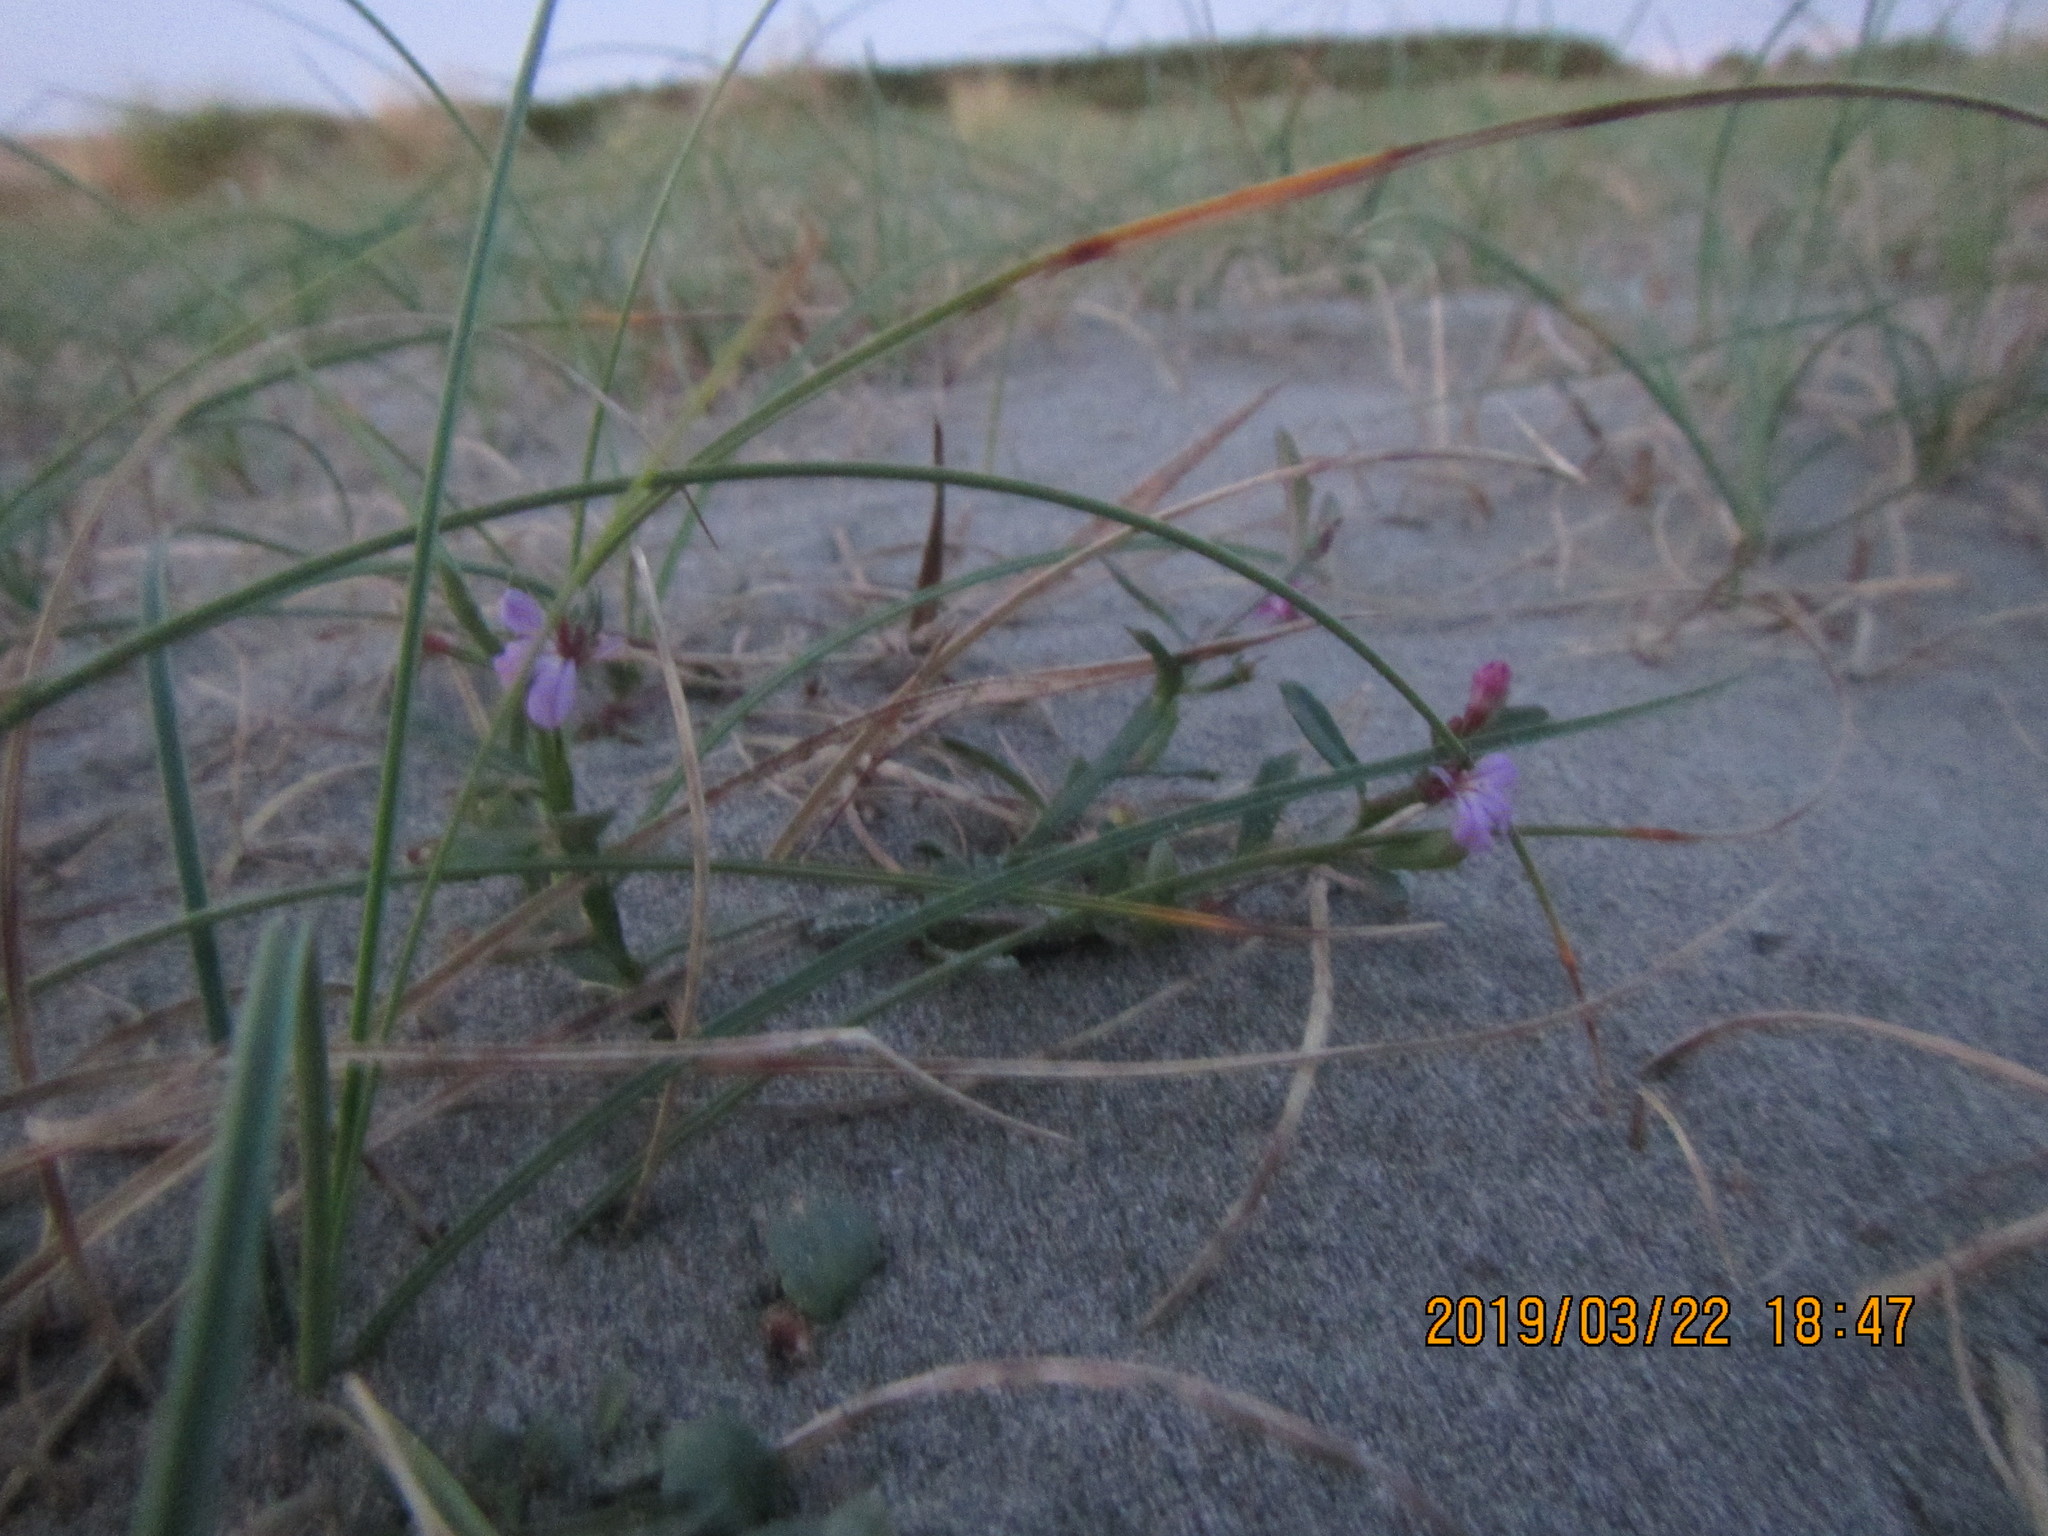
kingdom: Plantae
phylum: Tracheophyta
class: Magnoliopsida
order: Asterales
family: Campanulaceae
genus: Lobelia
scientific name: Lobelia anceps
